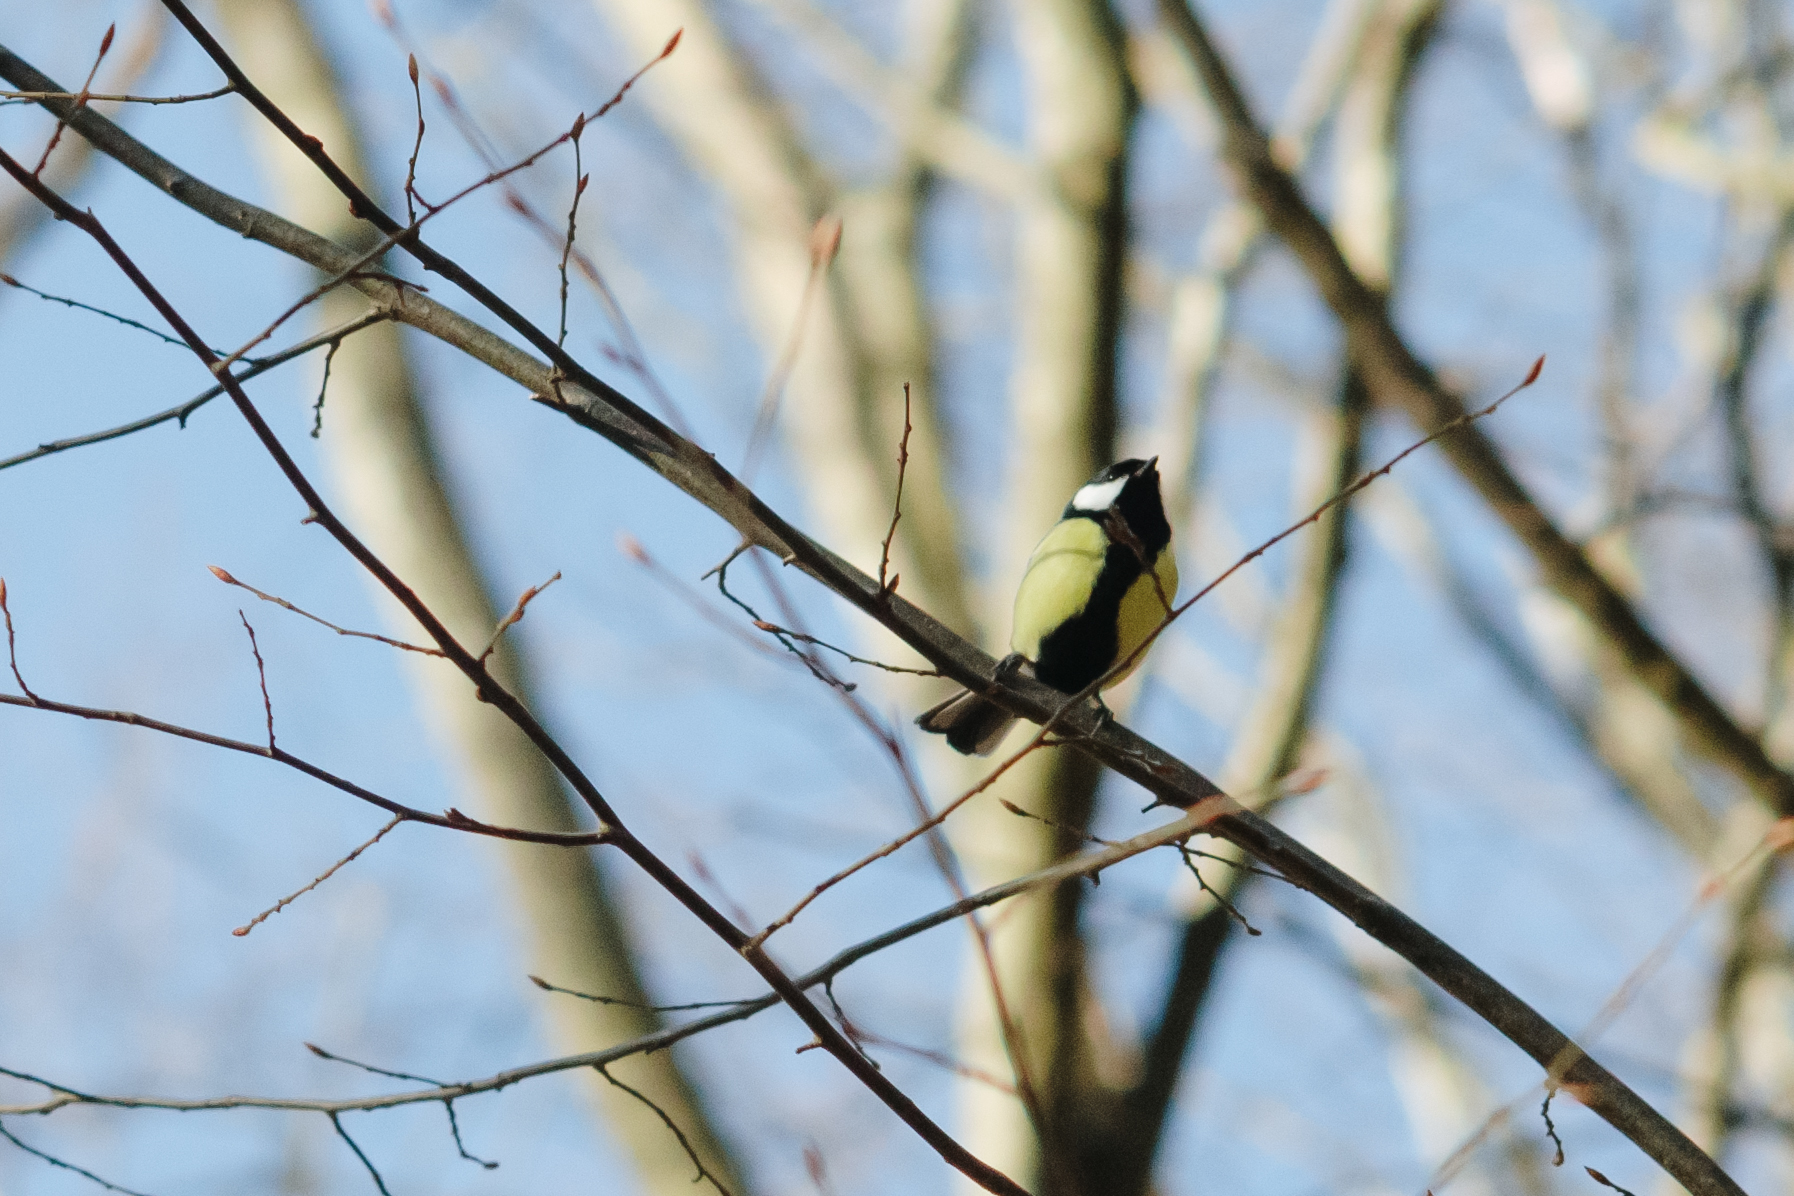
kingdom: Animalia
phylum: Chordata
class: Aves
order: Passeriformes
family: Paridae
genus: Parus
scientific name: Parus major
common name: Great tit
